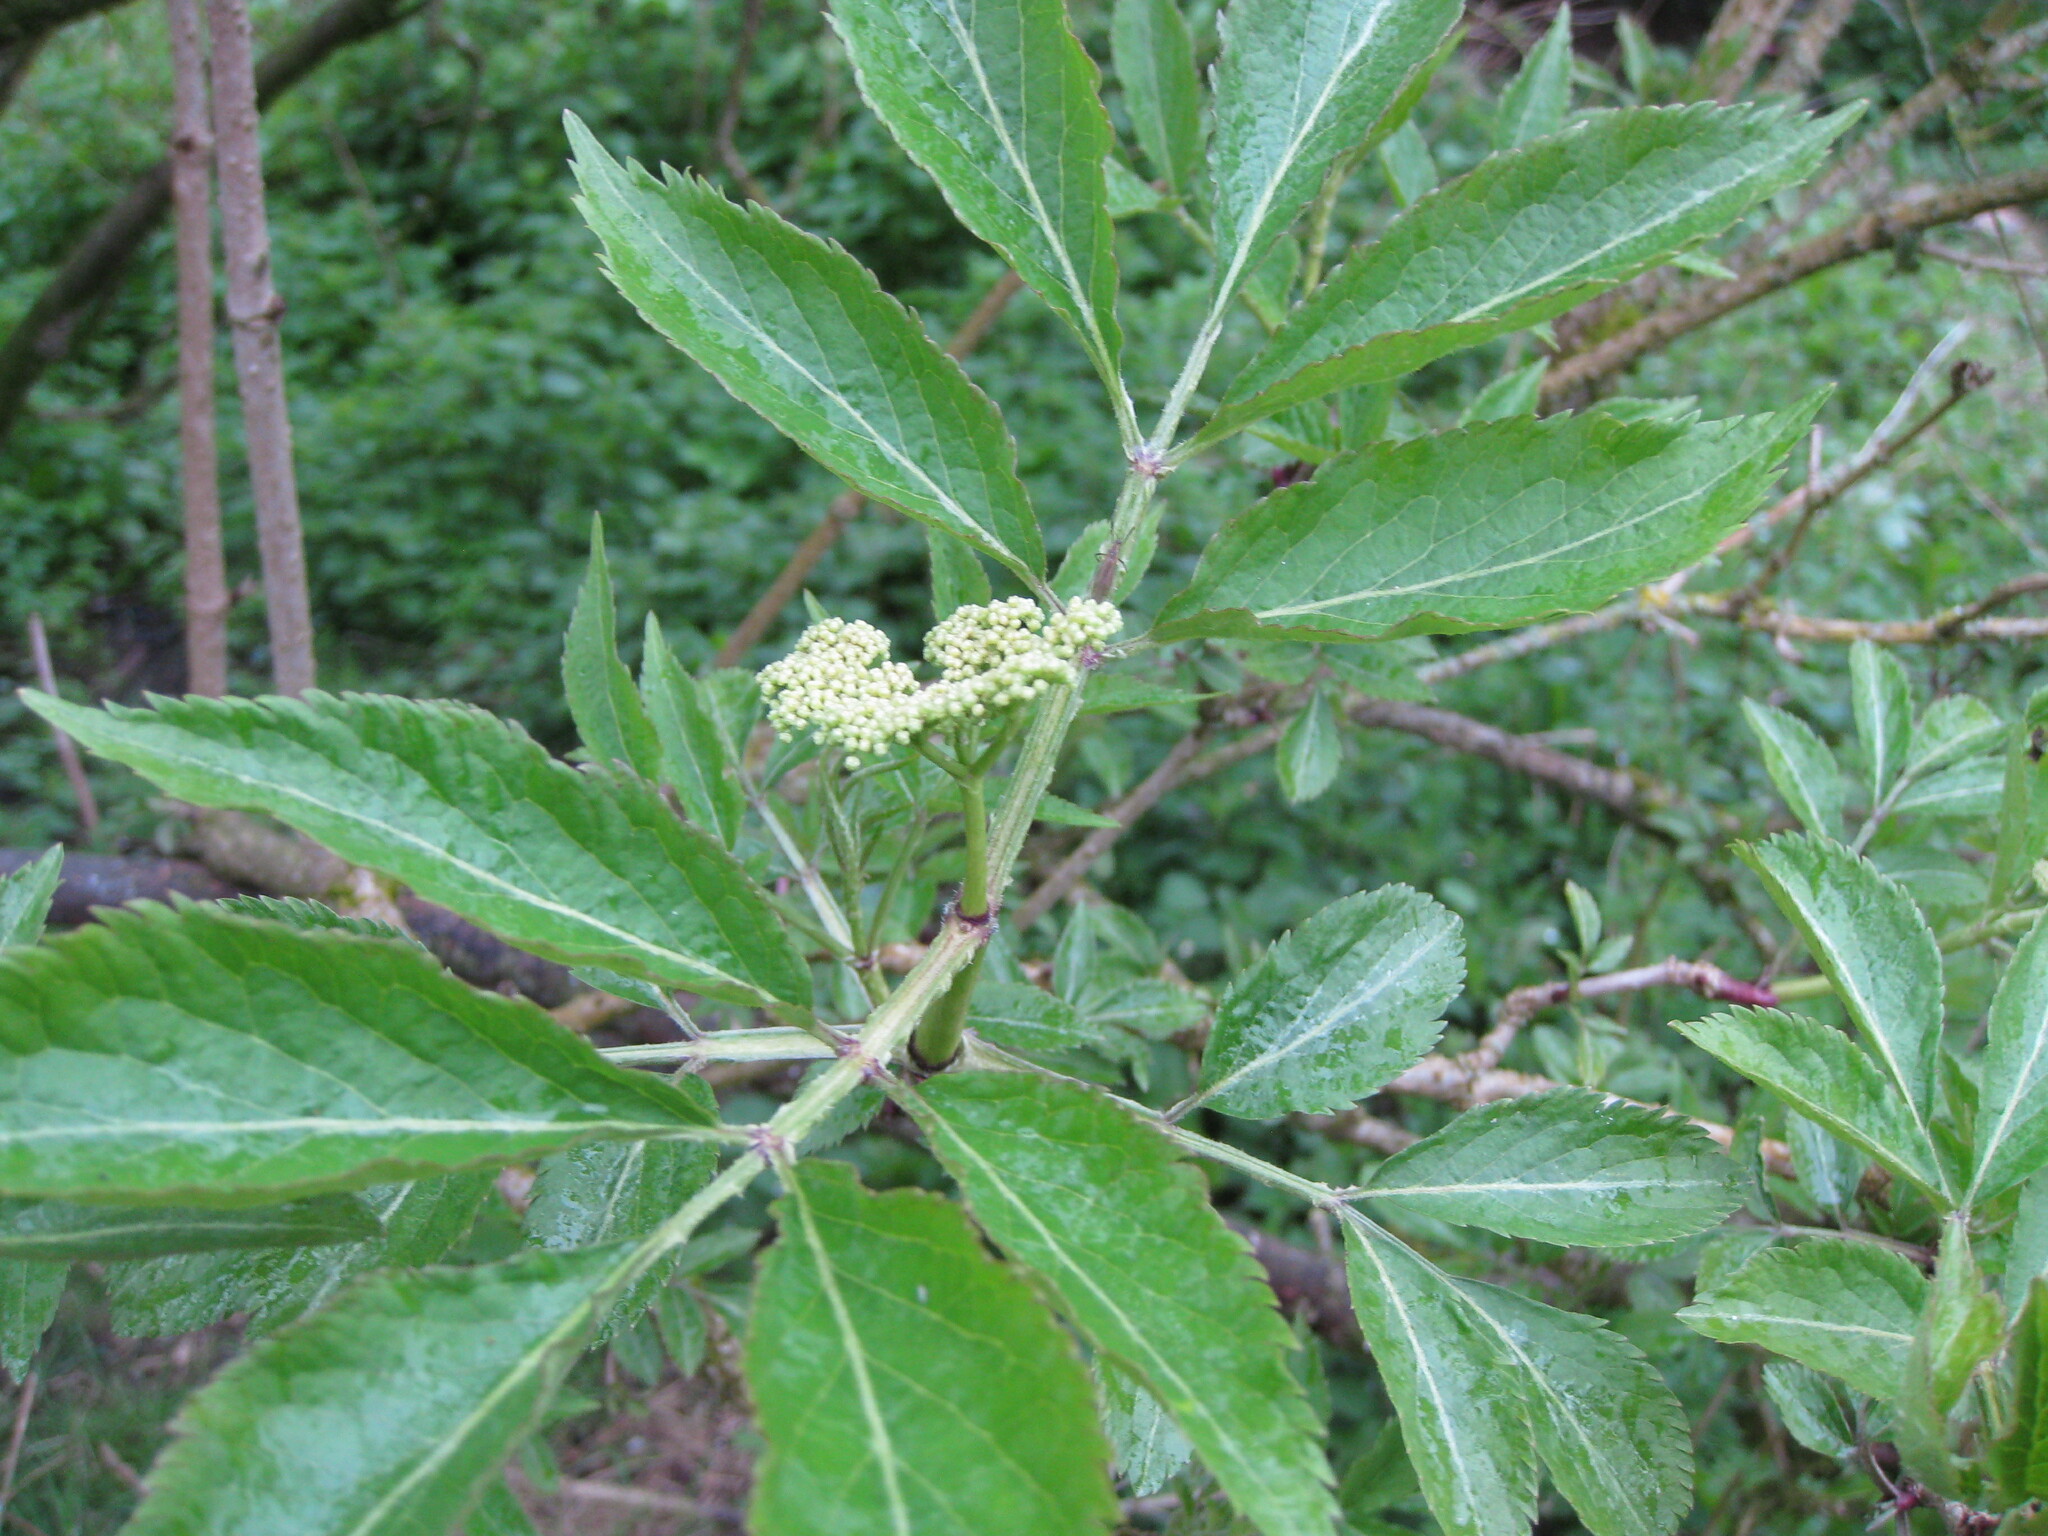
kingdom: Plantae
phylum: Tracheophyta
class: Magnoliopsida
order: Dipsacales
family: Viburnaceae
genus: Sambucus
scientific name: Sambucus nigra
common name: Elder
